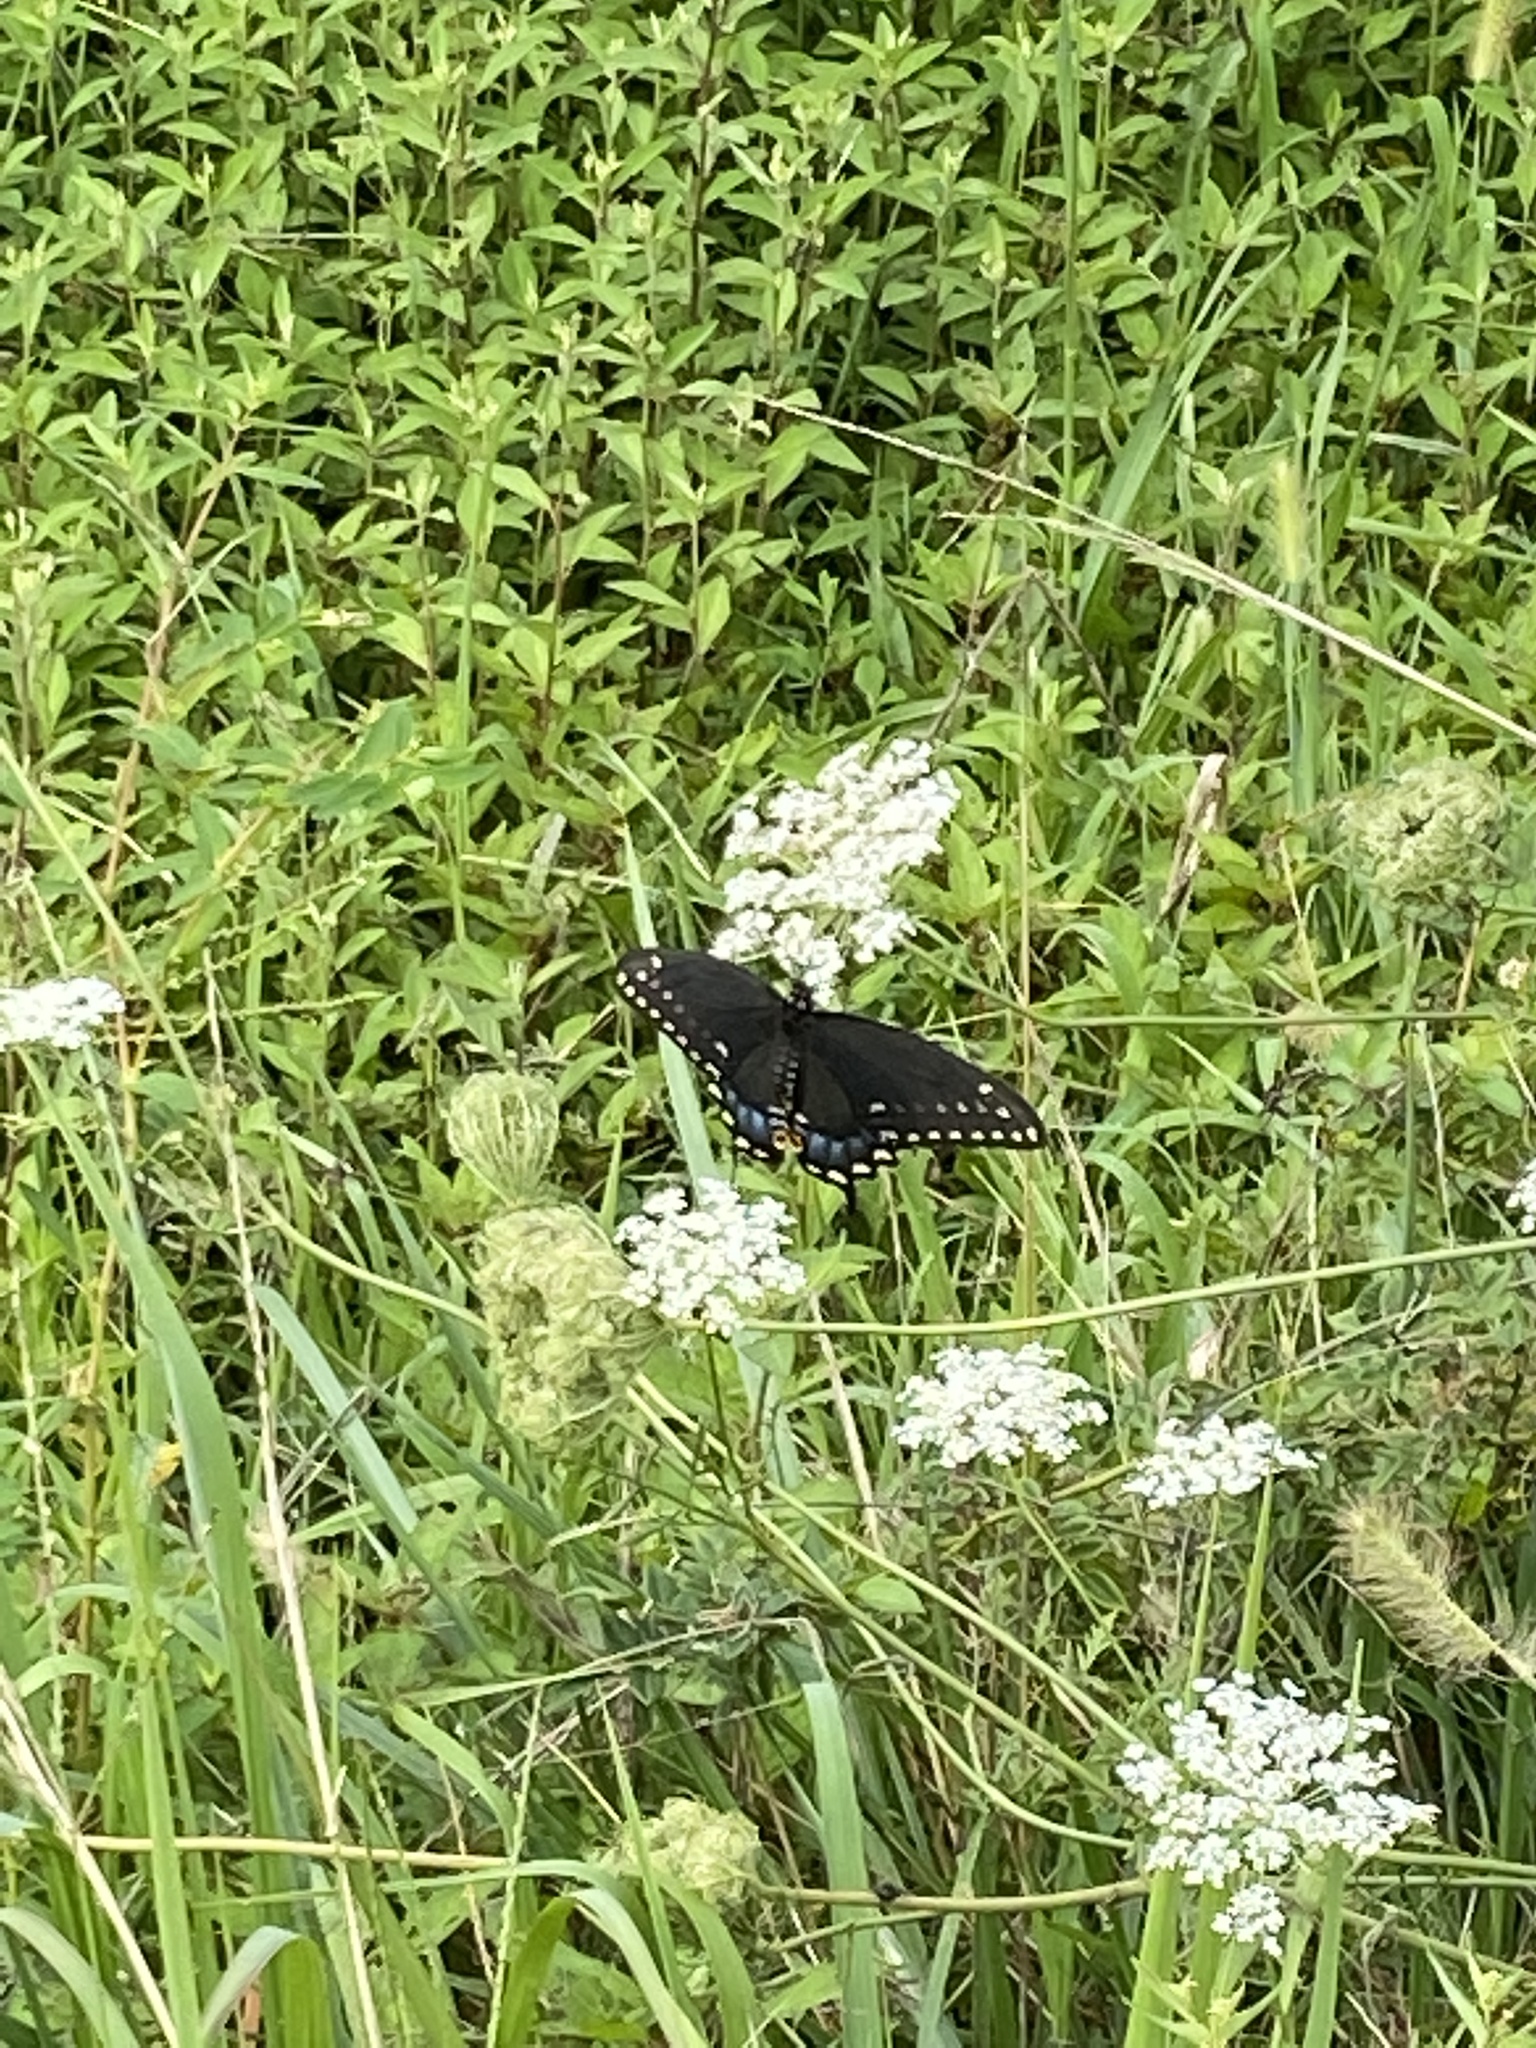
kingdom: Animalia
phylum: Arthropoda
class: Insecta
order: Lepidoptera
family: Papilionidae
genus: Papilio
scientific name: Papilio polyxenes
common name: Black swallowtail
